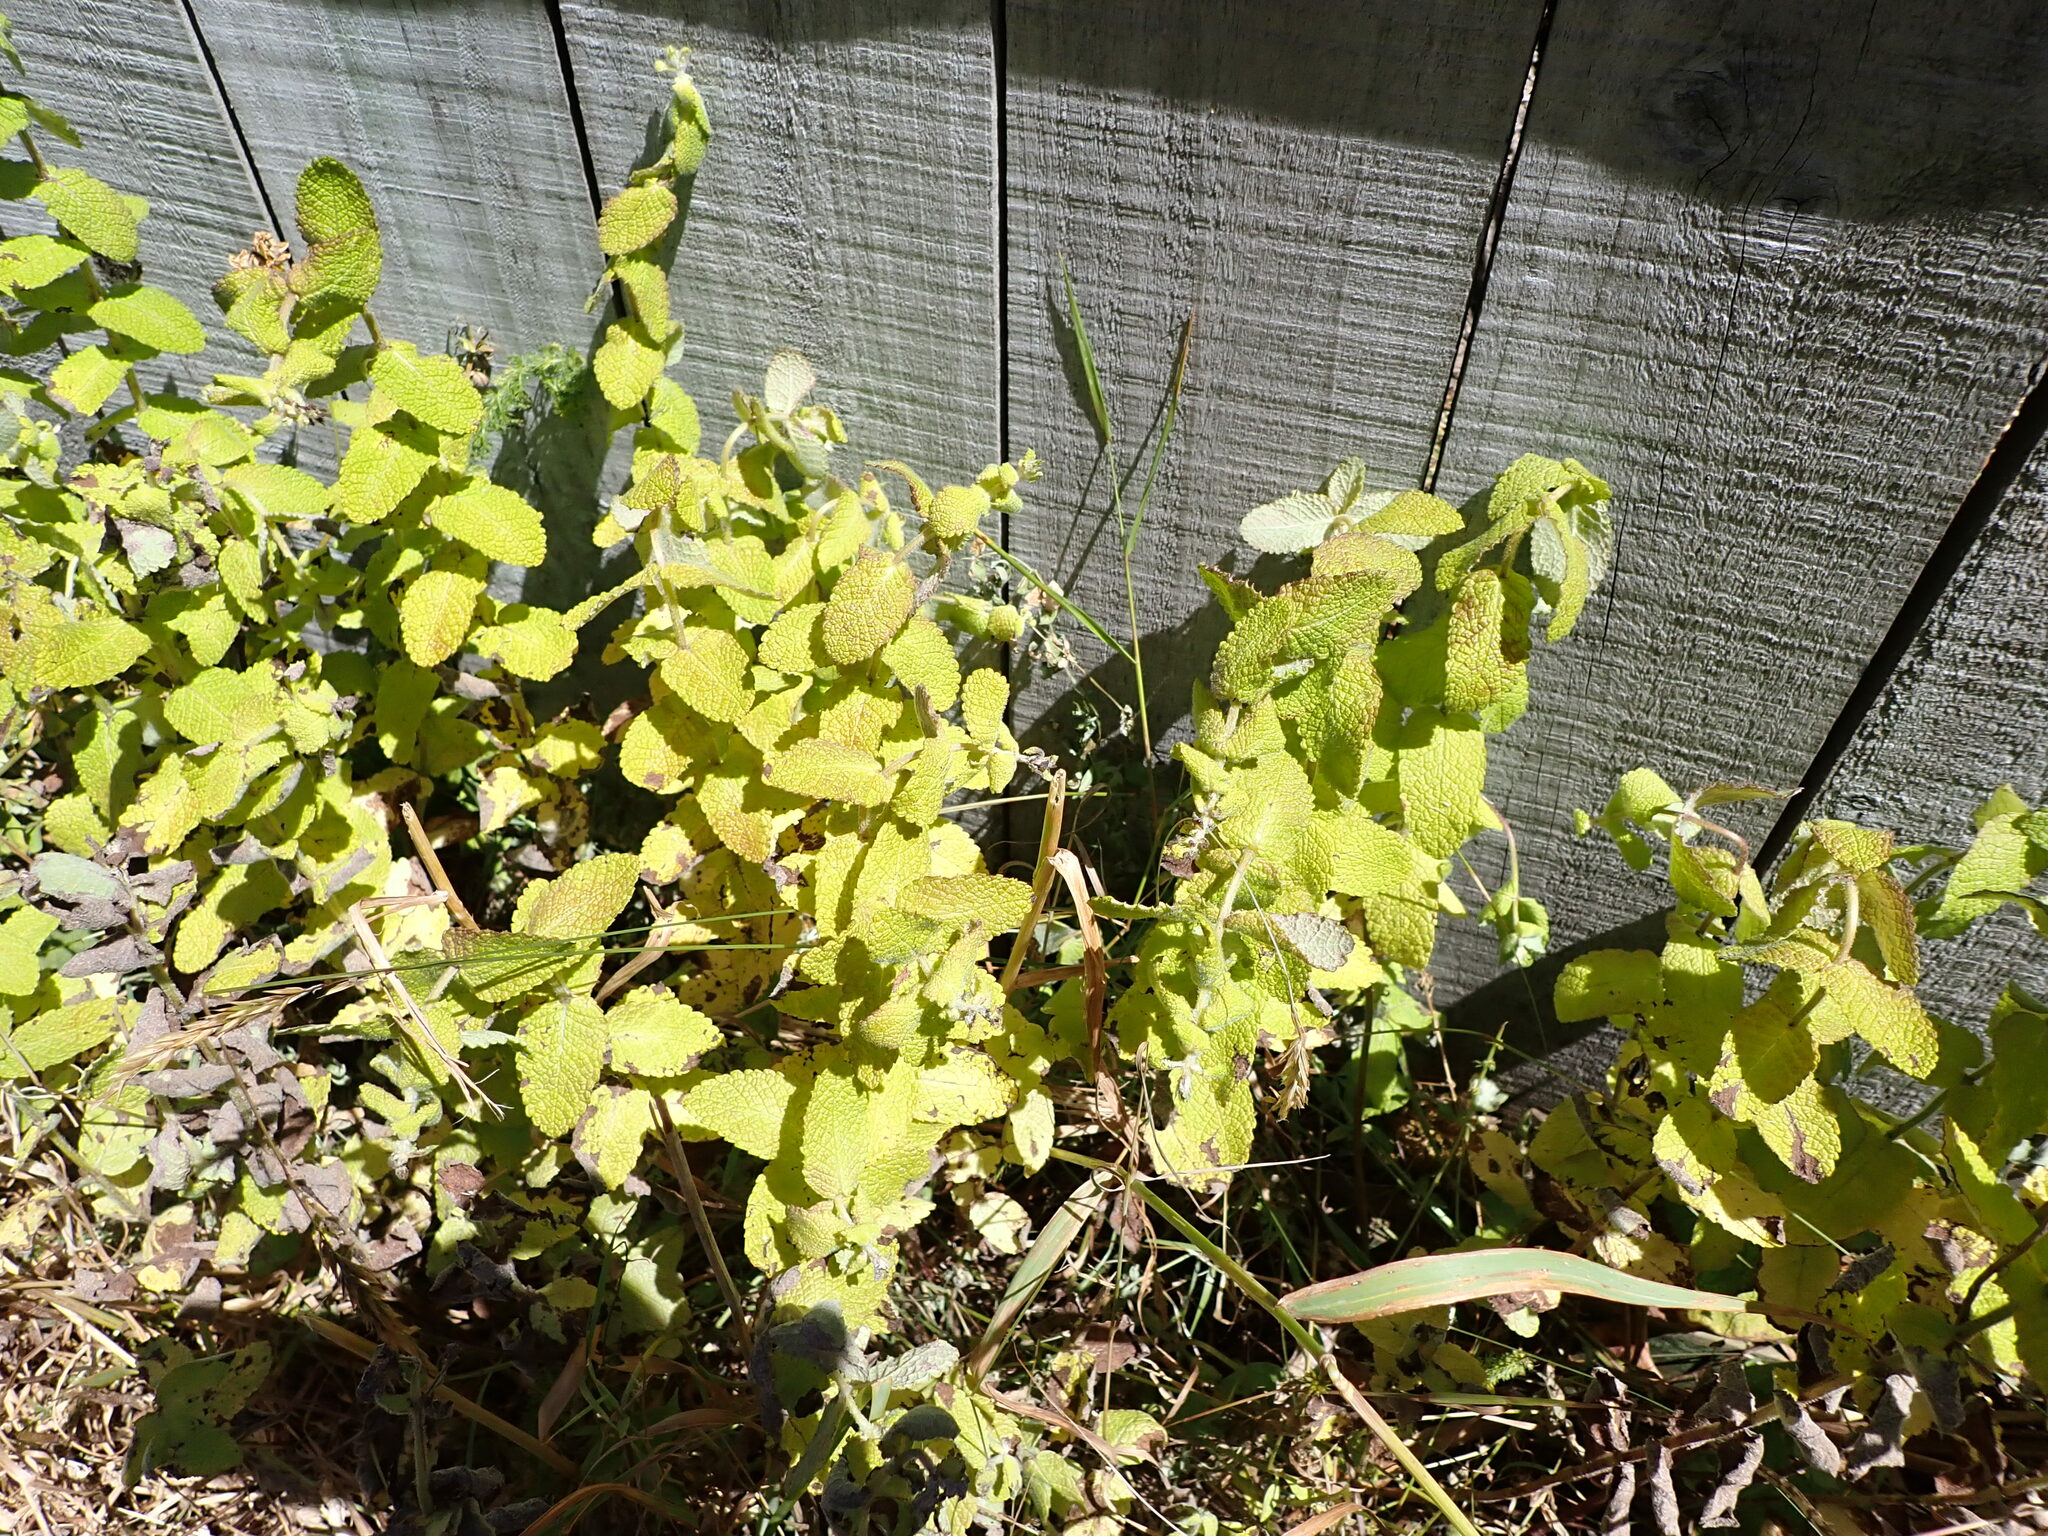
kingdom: Plantae
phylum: Tracheophyta
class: Magnoliopsida
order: Lamiales
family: Lamiaceae
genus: Mentha
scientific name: Mentha suaveolens
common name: Apple mint
